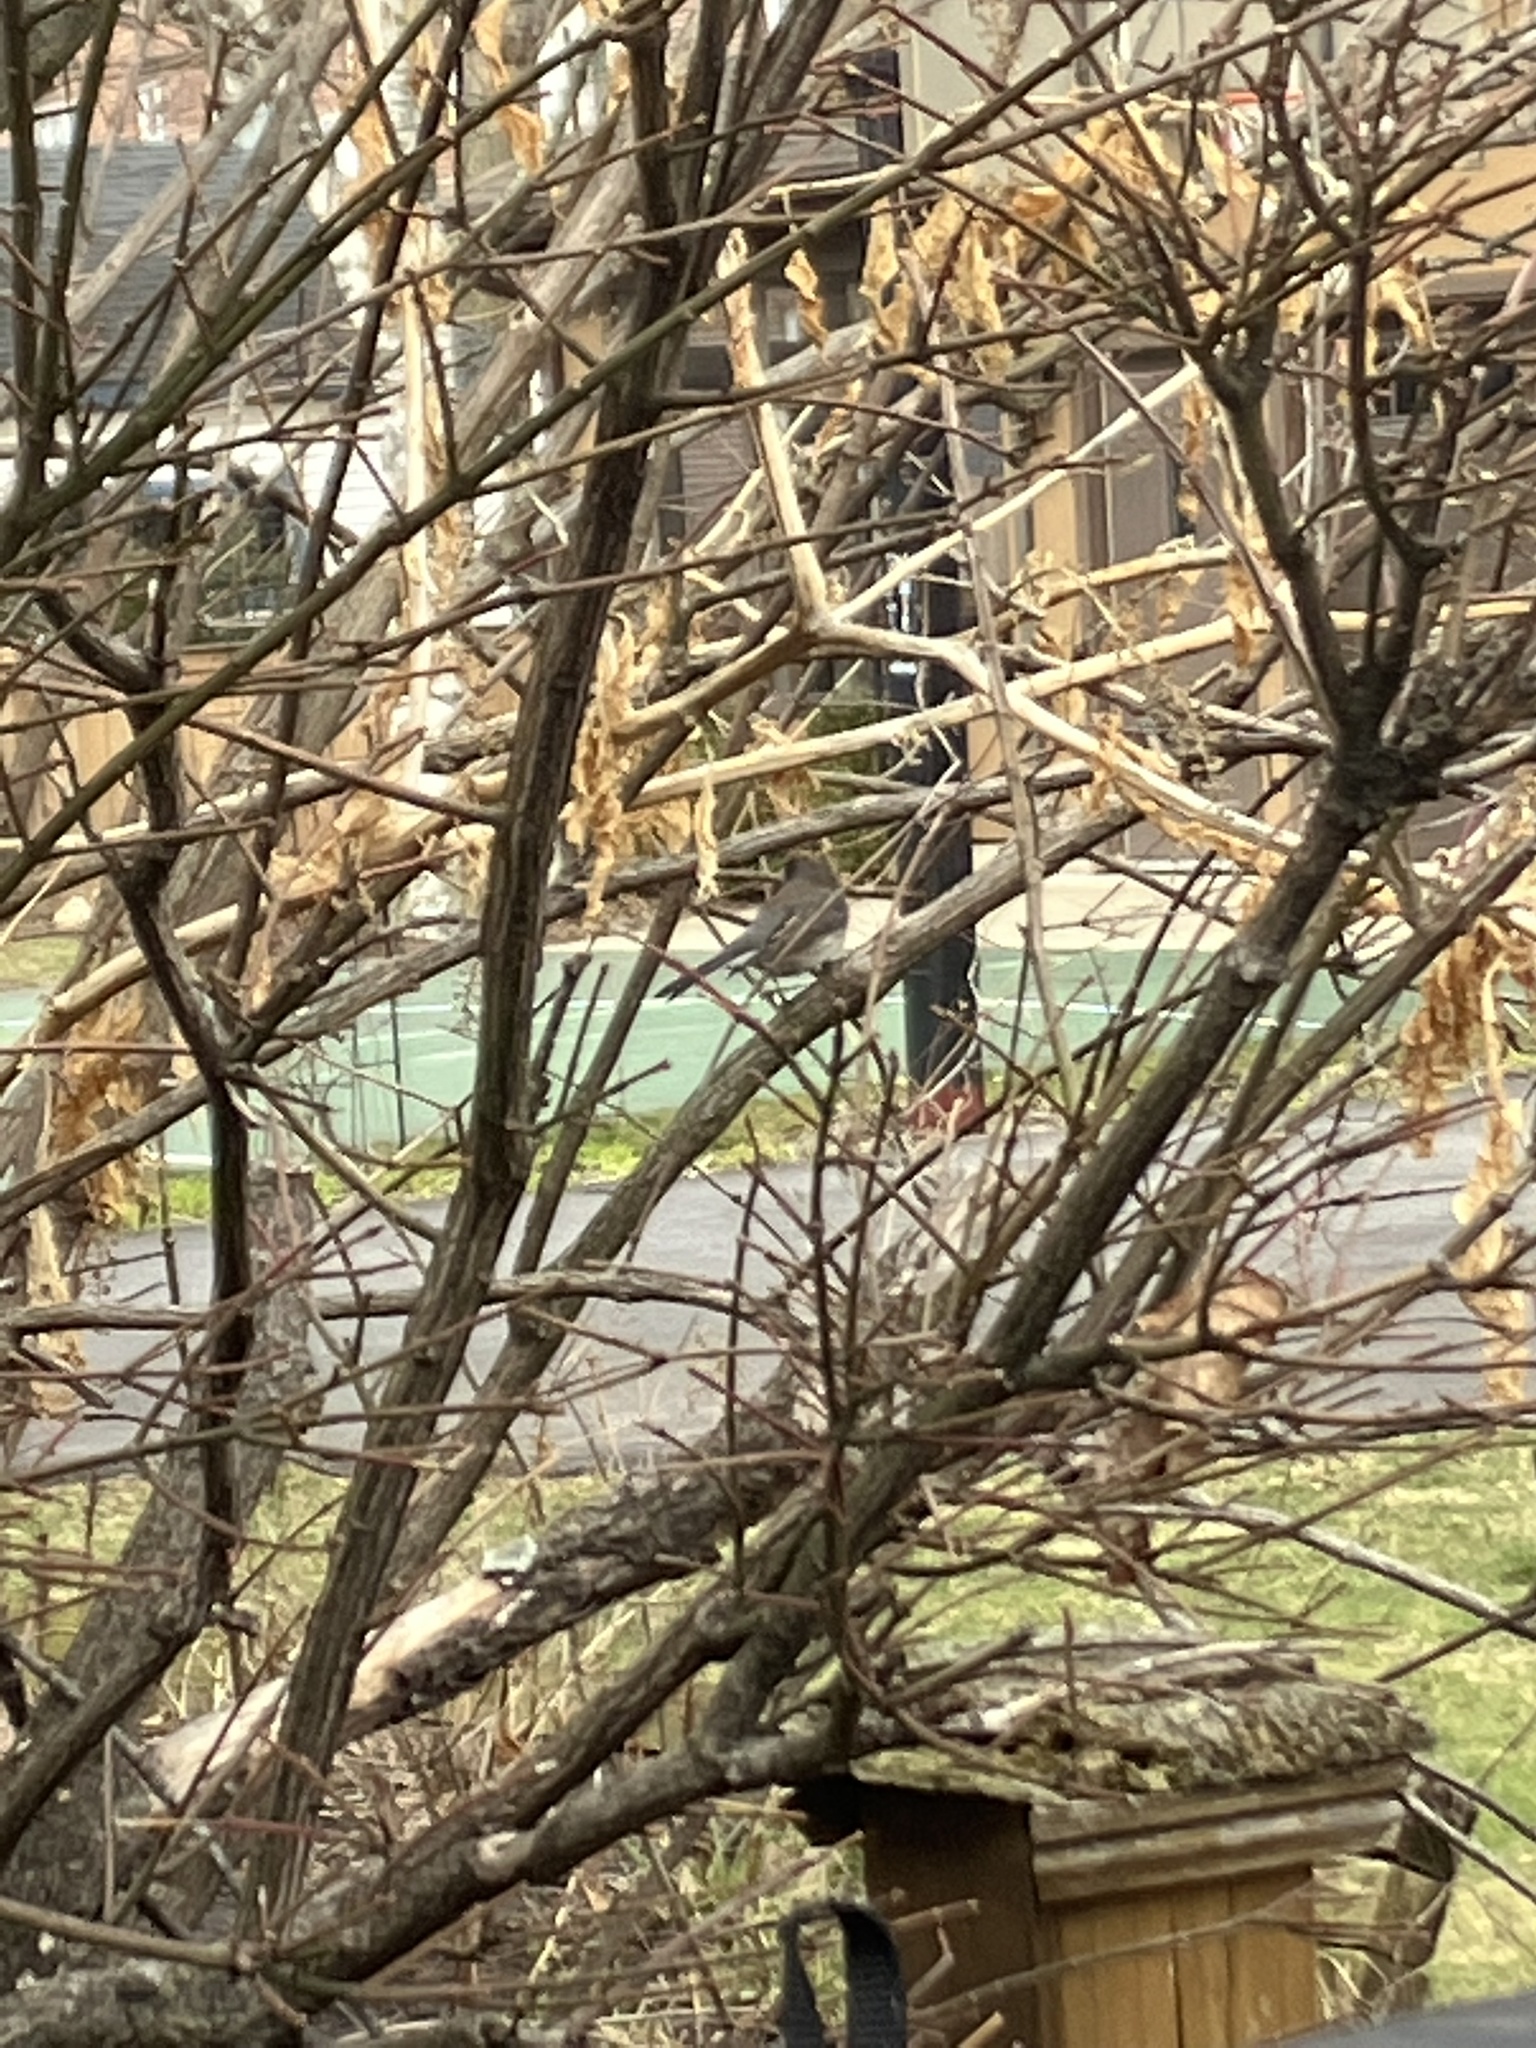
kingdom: Animalia
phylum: Chordata
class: Aves
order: Passeriformes
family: Passerellidae
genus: Junco
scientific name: Junco hyemalis
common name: Dark-eyed junco
